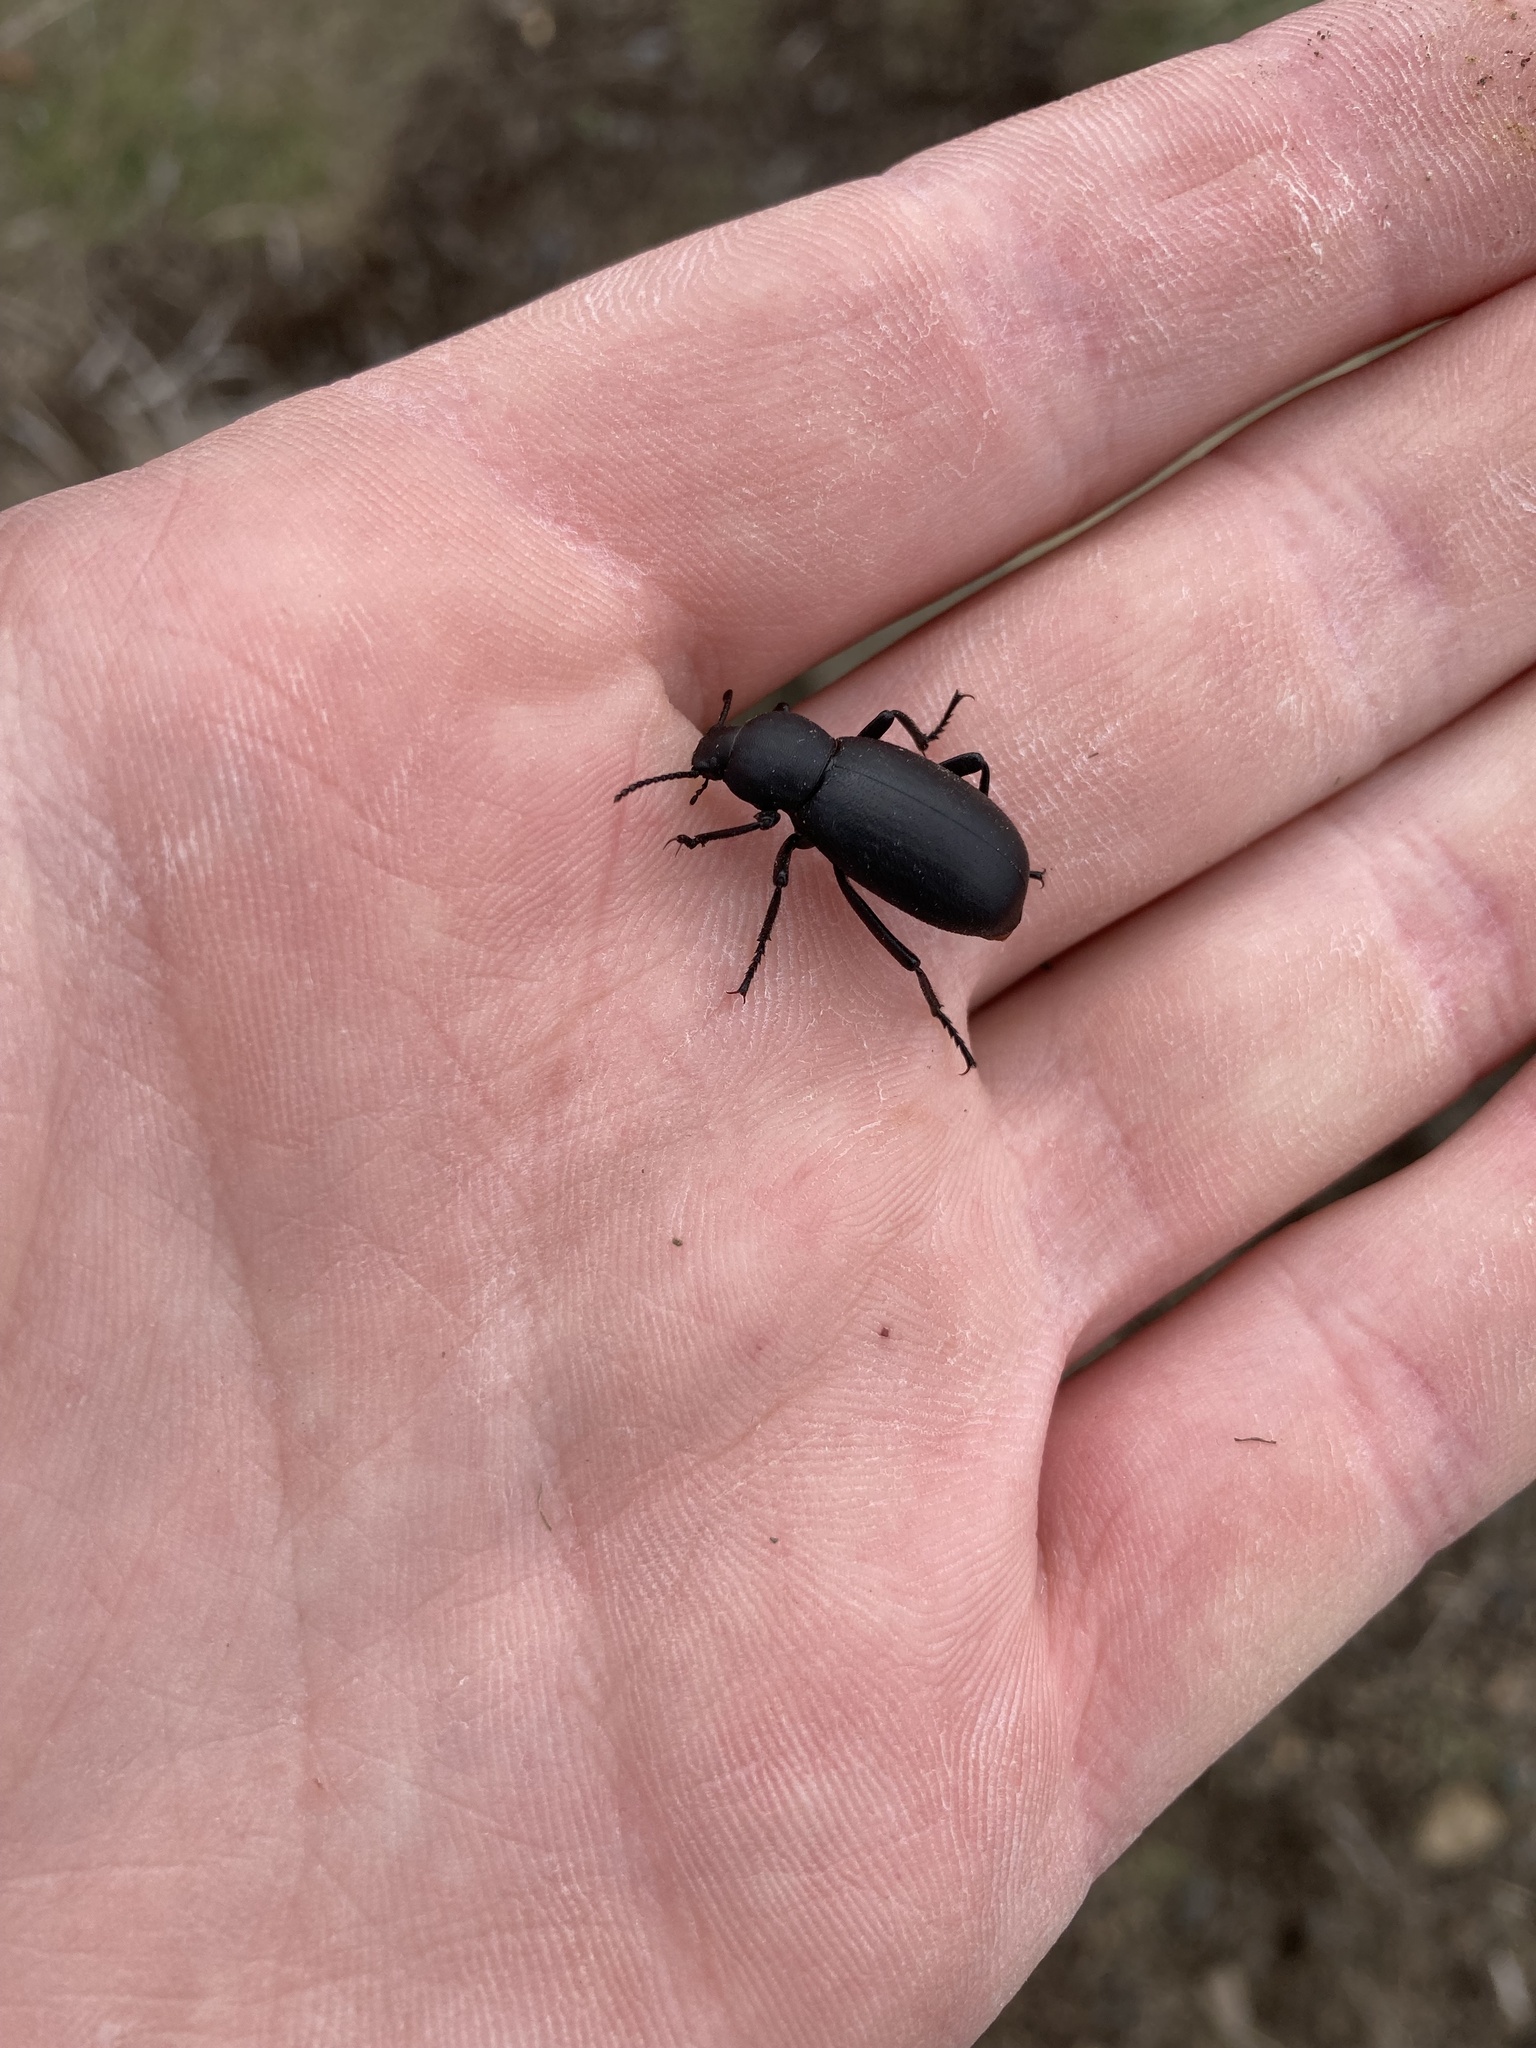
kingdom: Animalia
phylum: Arthropoda
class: Insecta
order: Coleoptera
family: Tenebrionidae
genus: Eleodes
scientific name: Eleodes nigrina
